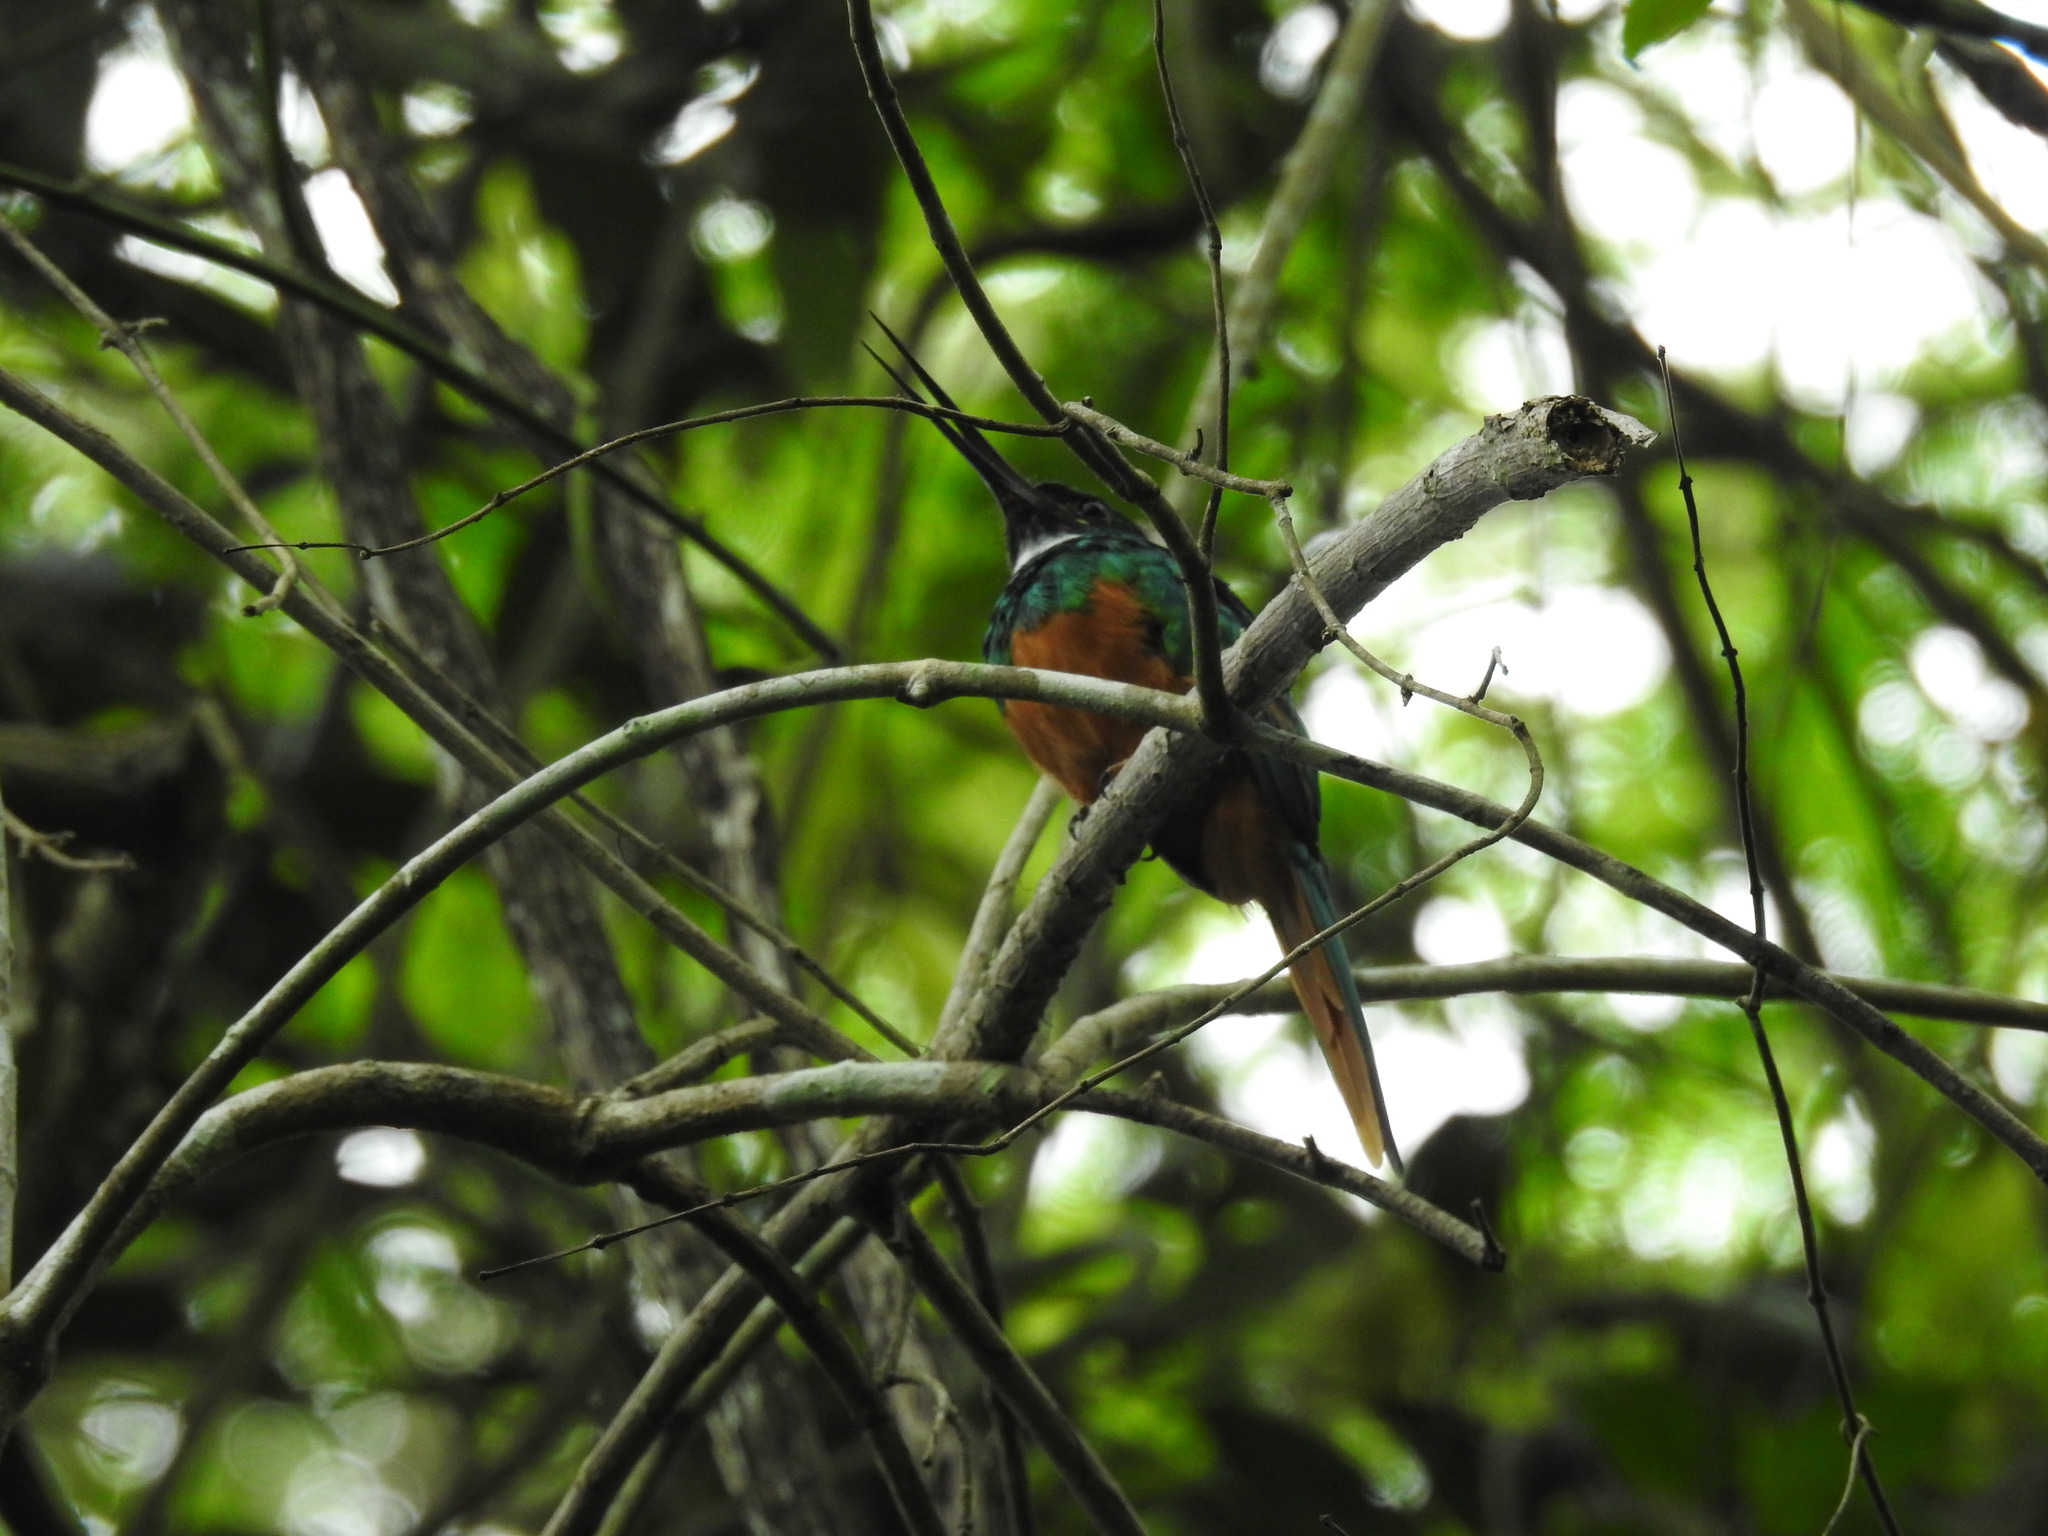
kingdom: Animalia
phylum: Chordata
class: Aves
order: Piciformes
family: Galbulidae
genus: Galbula
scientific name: Galbula ruficauda
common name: Rufous-tailed jacamar
